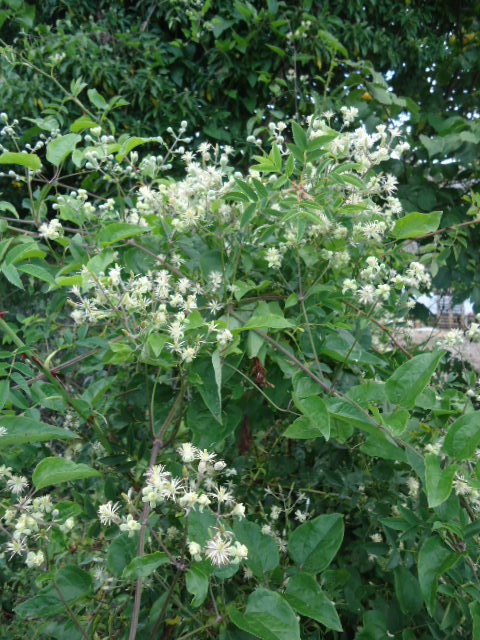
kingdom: Plantae
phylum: Tracheophyta
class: Magnoliopsida
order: Ranunculales
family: Ranunculaceae
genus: Clematis
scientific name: Clematis vitalba
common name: Evergreen clematis
